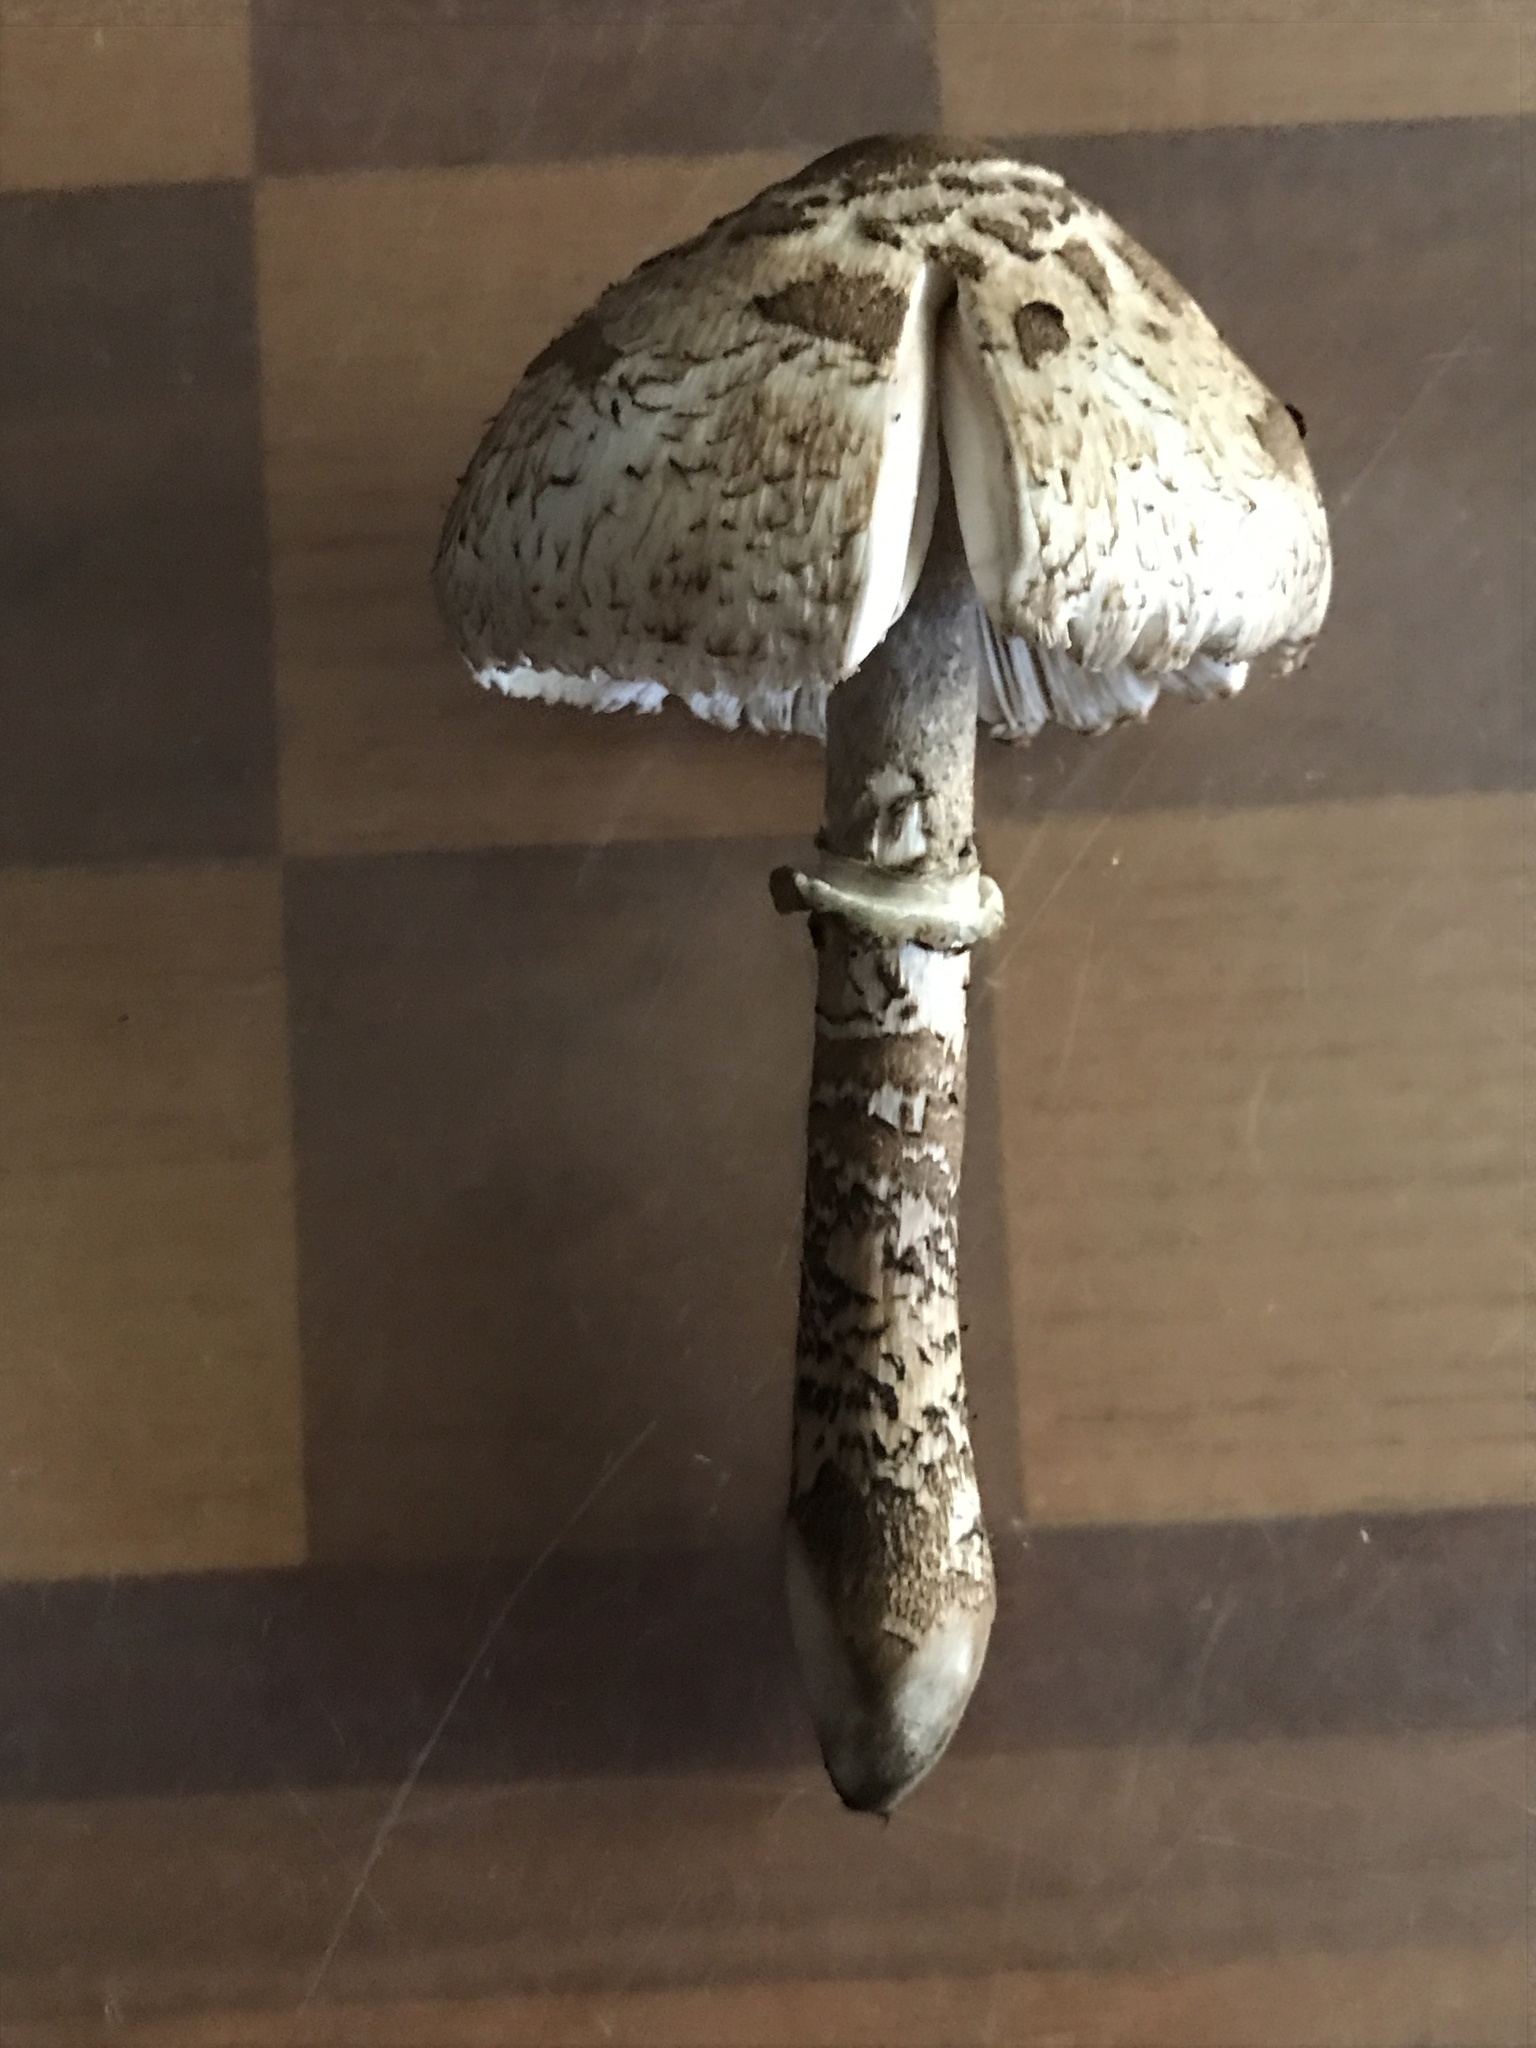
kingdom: Fungi
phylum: Basidiomycota
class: Agaricomycetes
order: Agaricales
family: Agaricaceae
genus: Macrolepiota
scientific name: Macrolepiota procera
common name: Parasol
